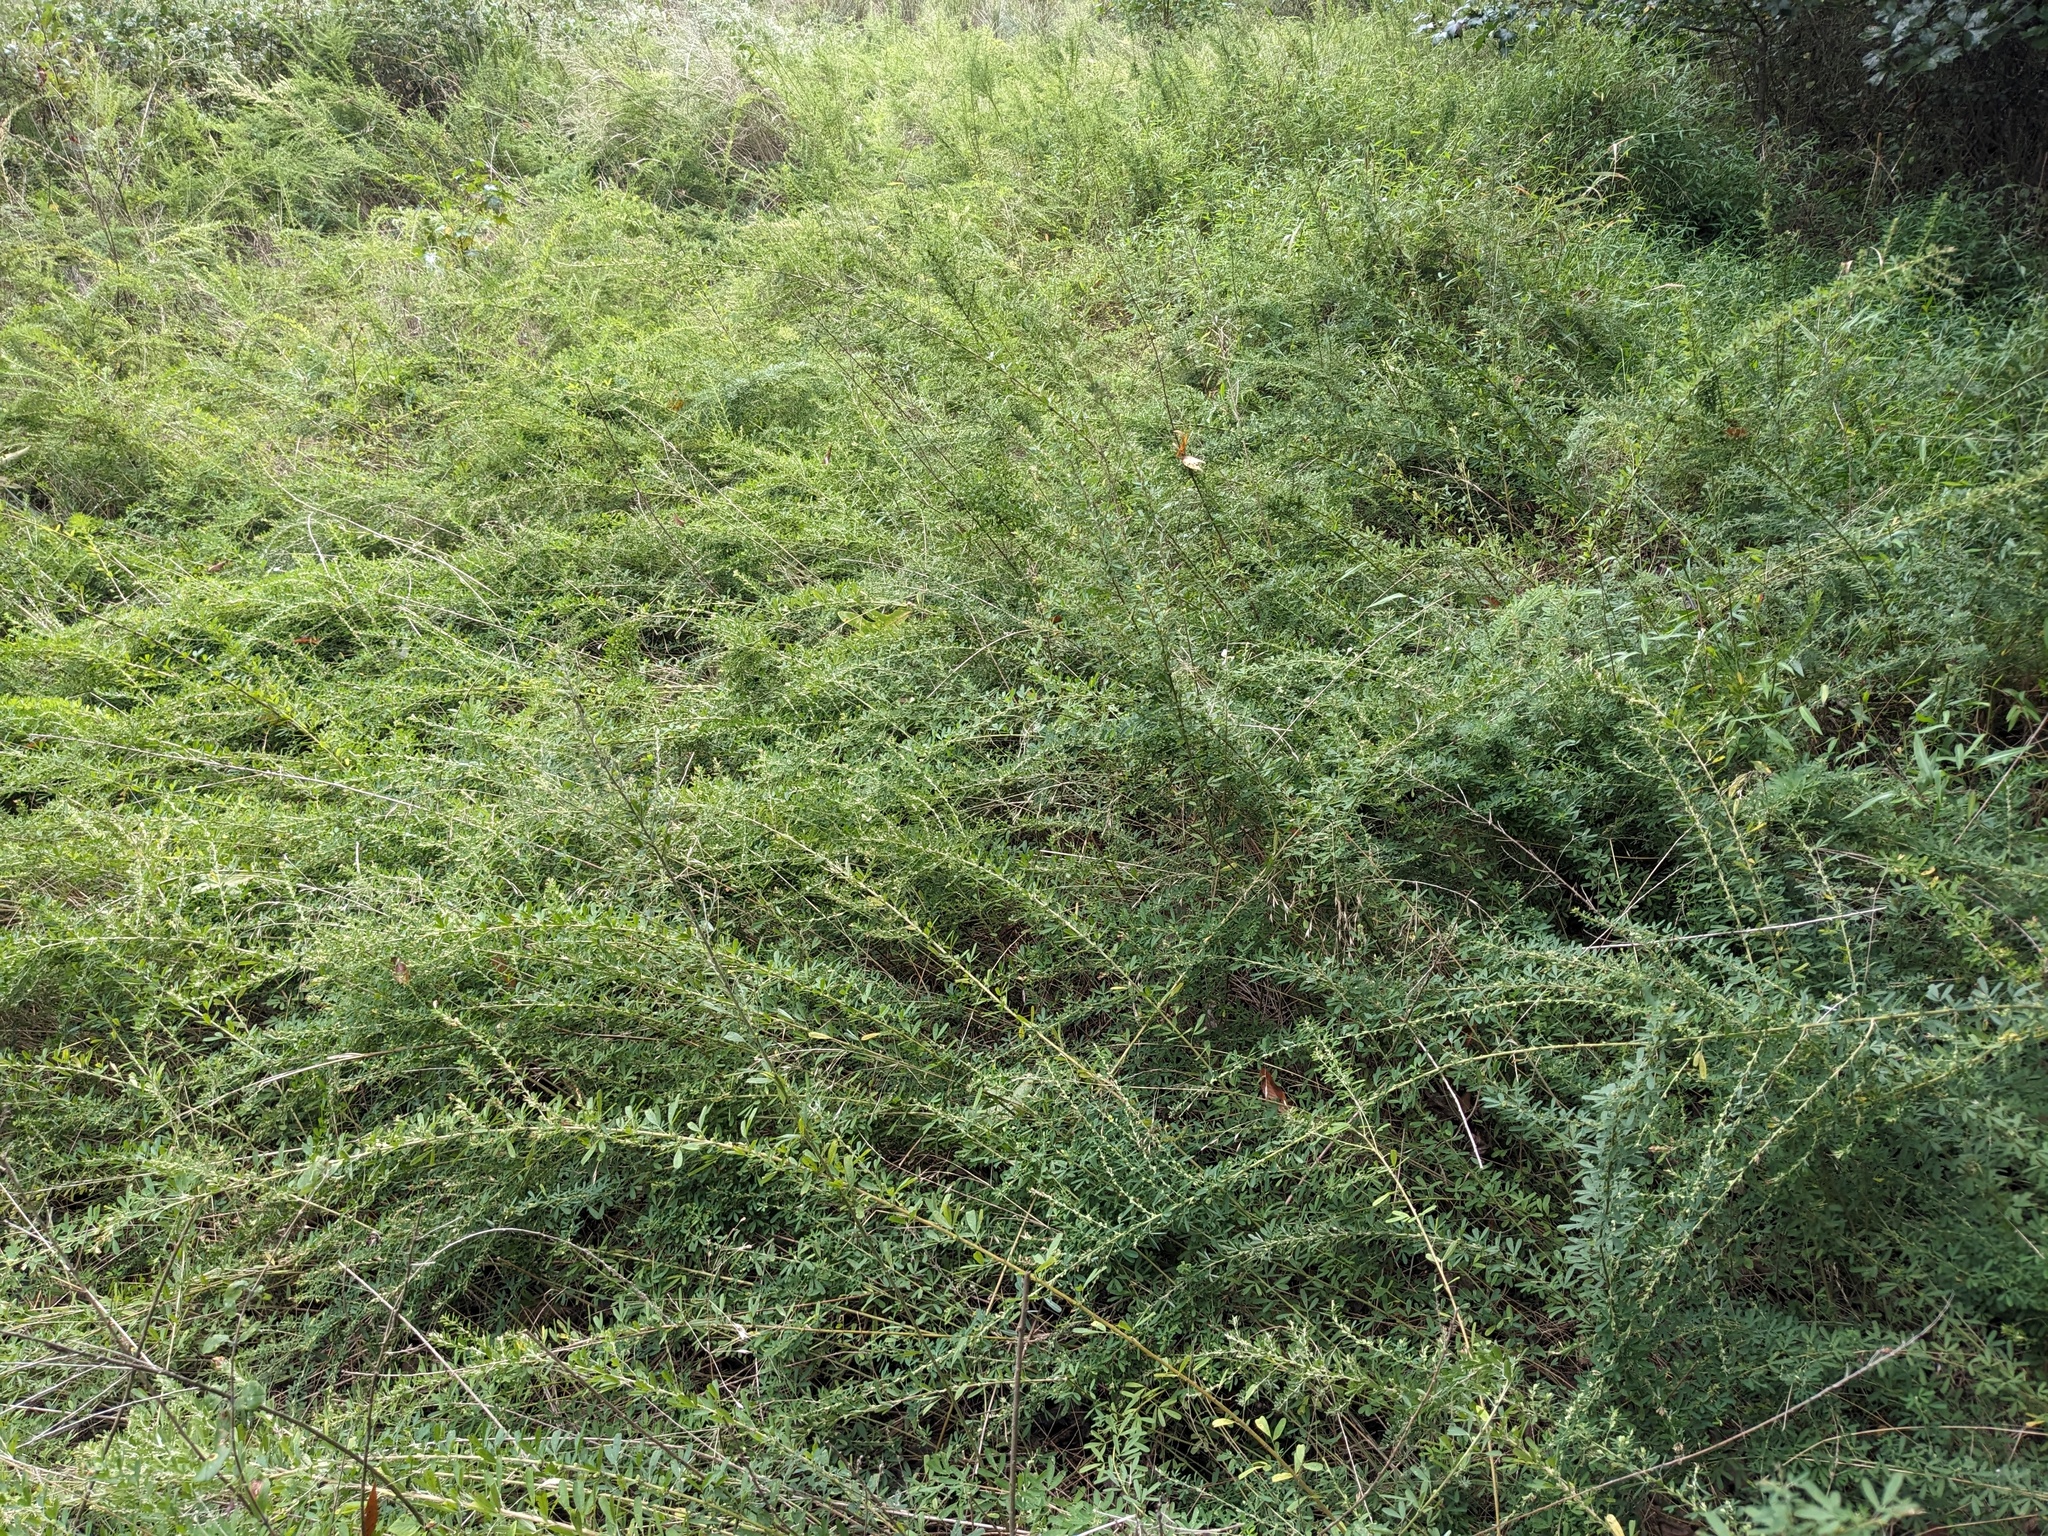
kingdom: Plantae
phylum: Tracheophyta
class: Magnoliopsida
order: Fabales
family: Fabaceae
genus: Lespedeza
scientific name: Lespedeza cuneata
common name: Chinese bush-clover
